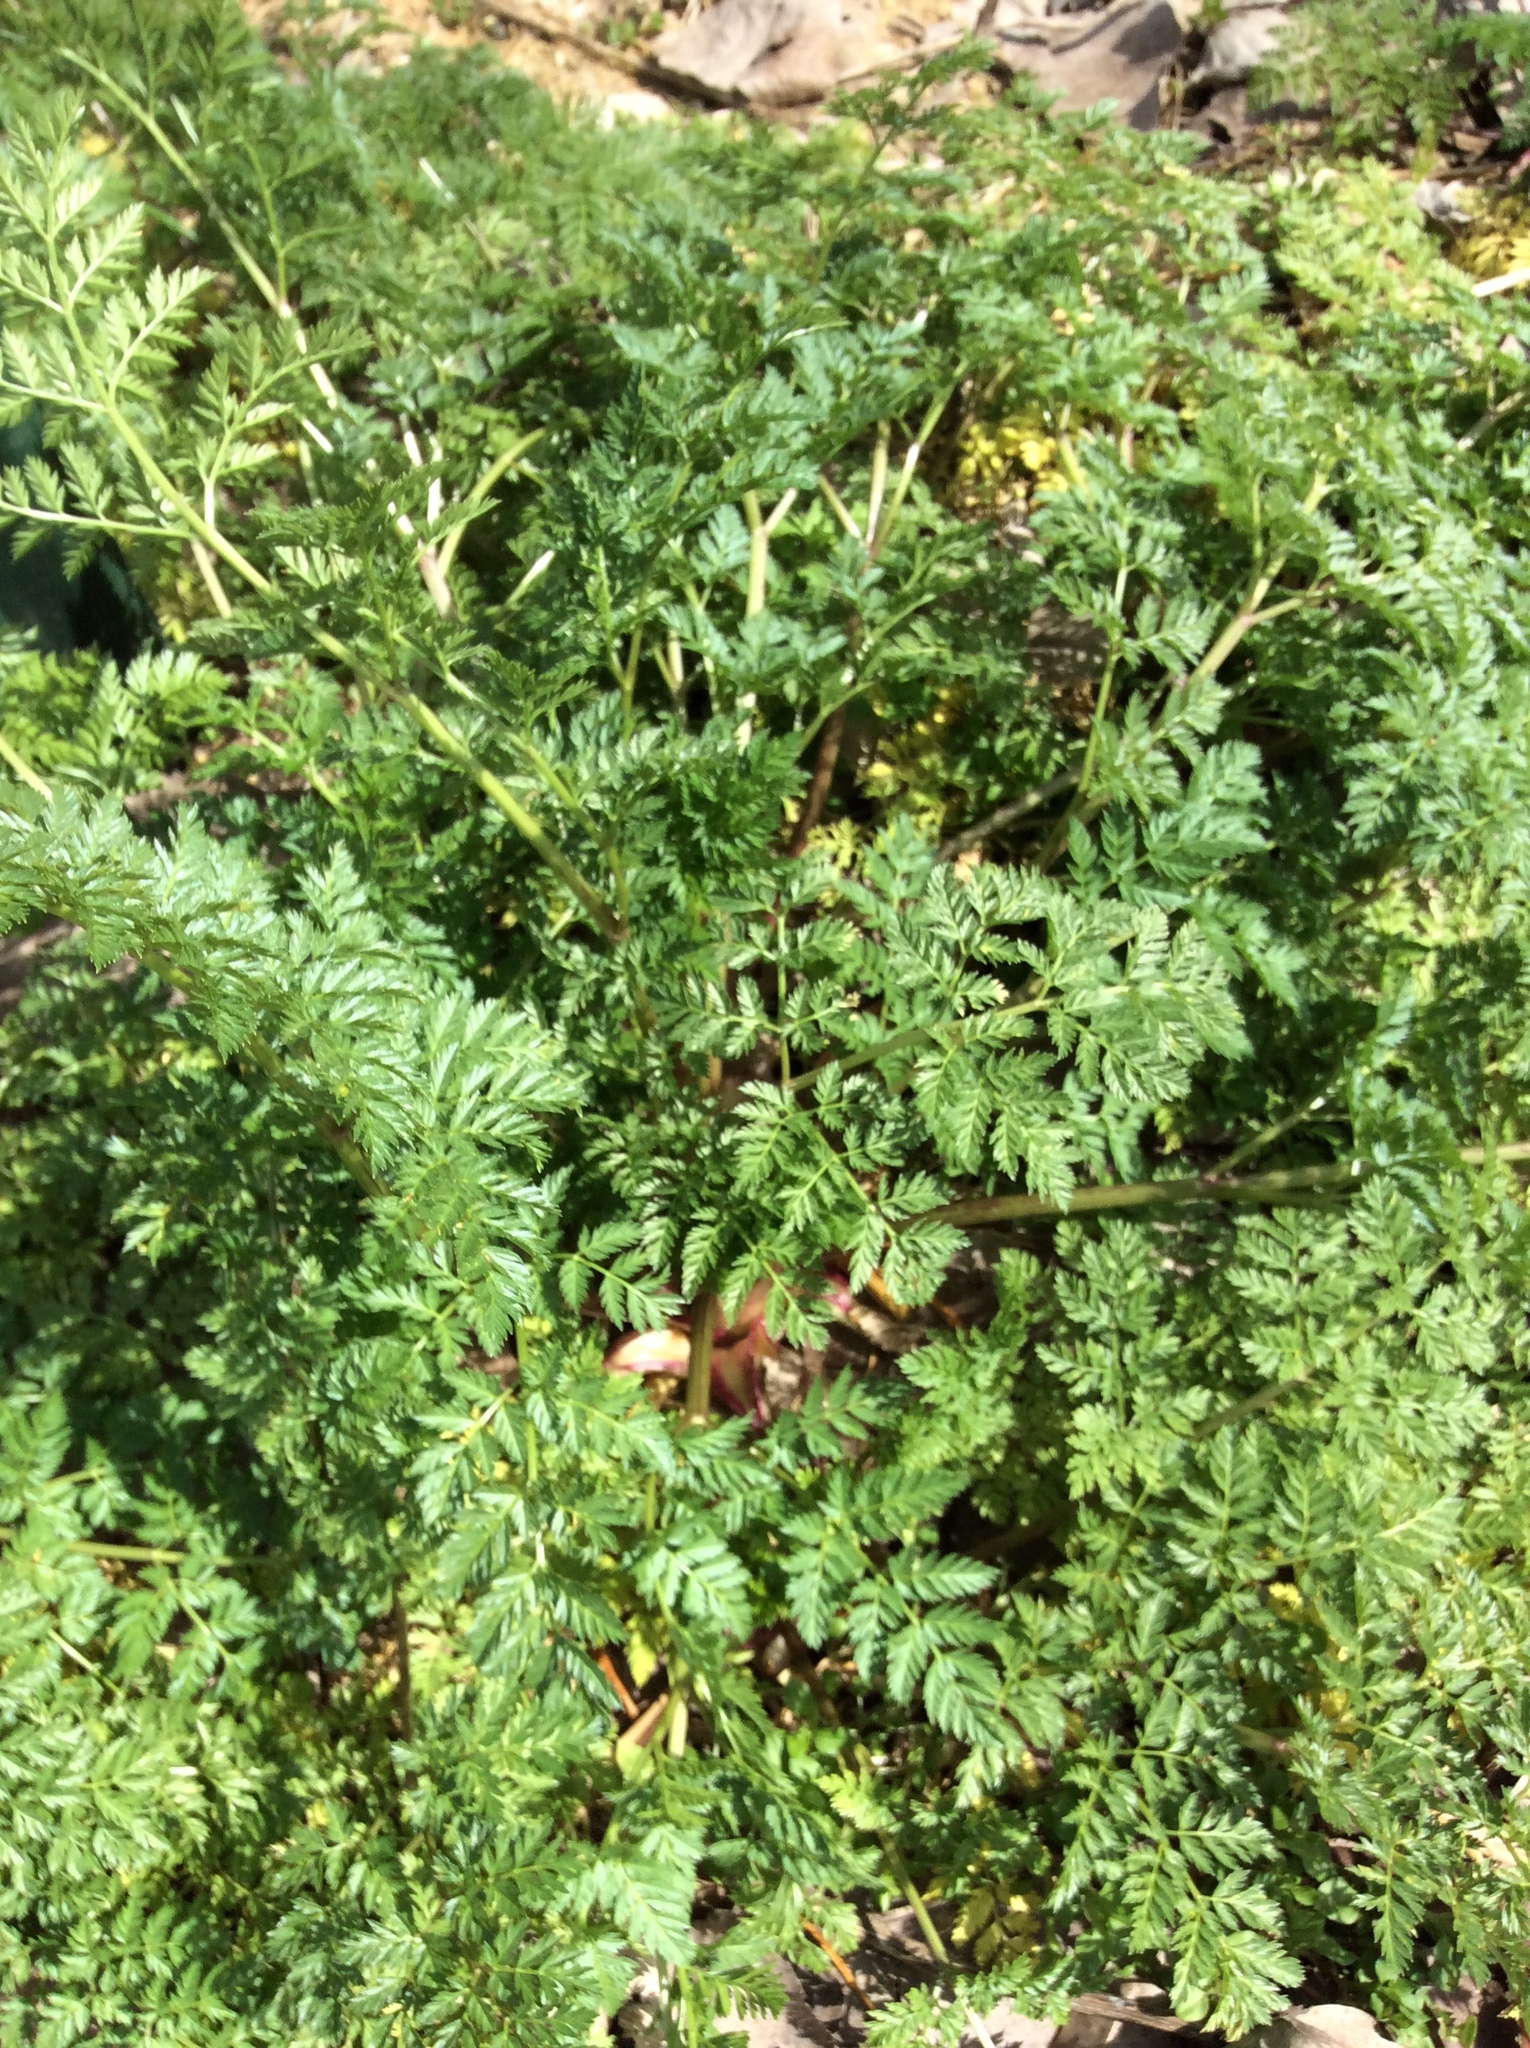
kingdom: Plantae
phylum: Tracheophyta
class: Magnoliopsida
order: Apiales
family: Apiaceae
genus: Conium
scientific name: Conium maculatum
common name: Hemlock
